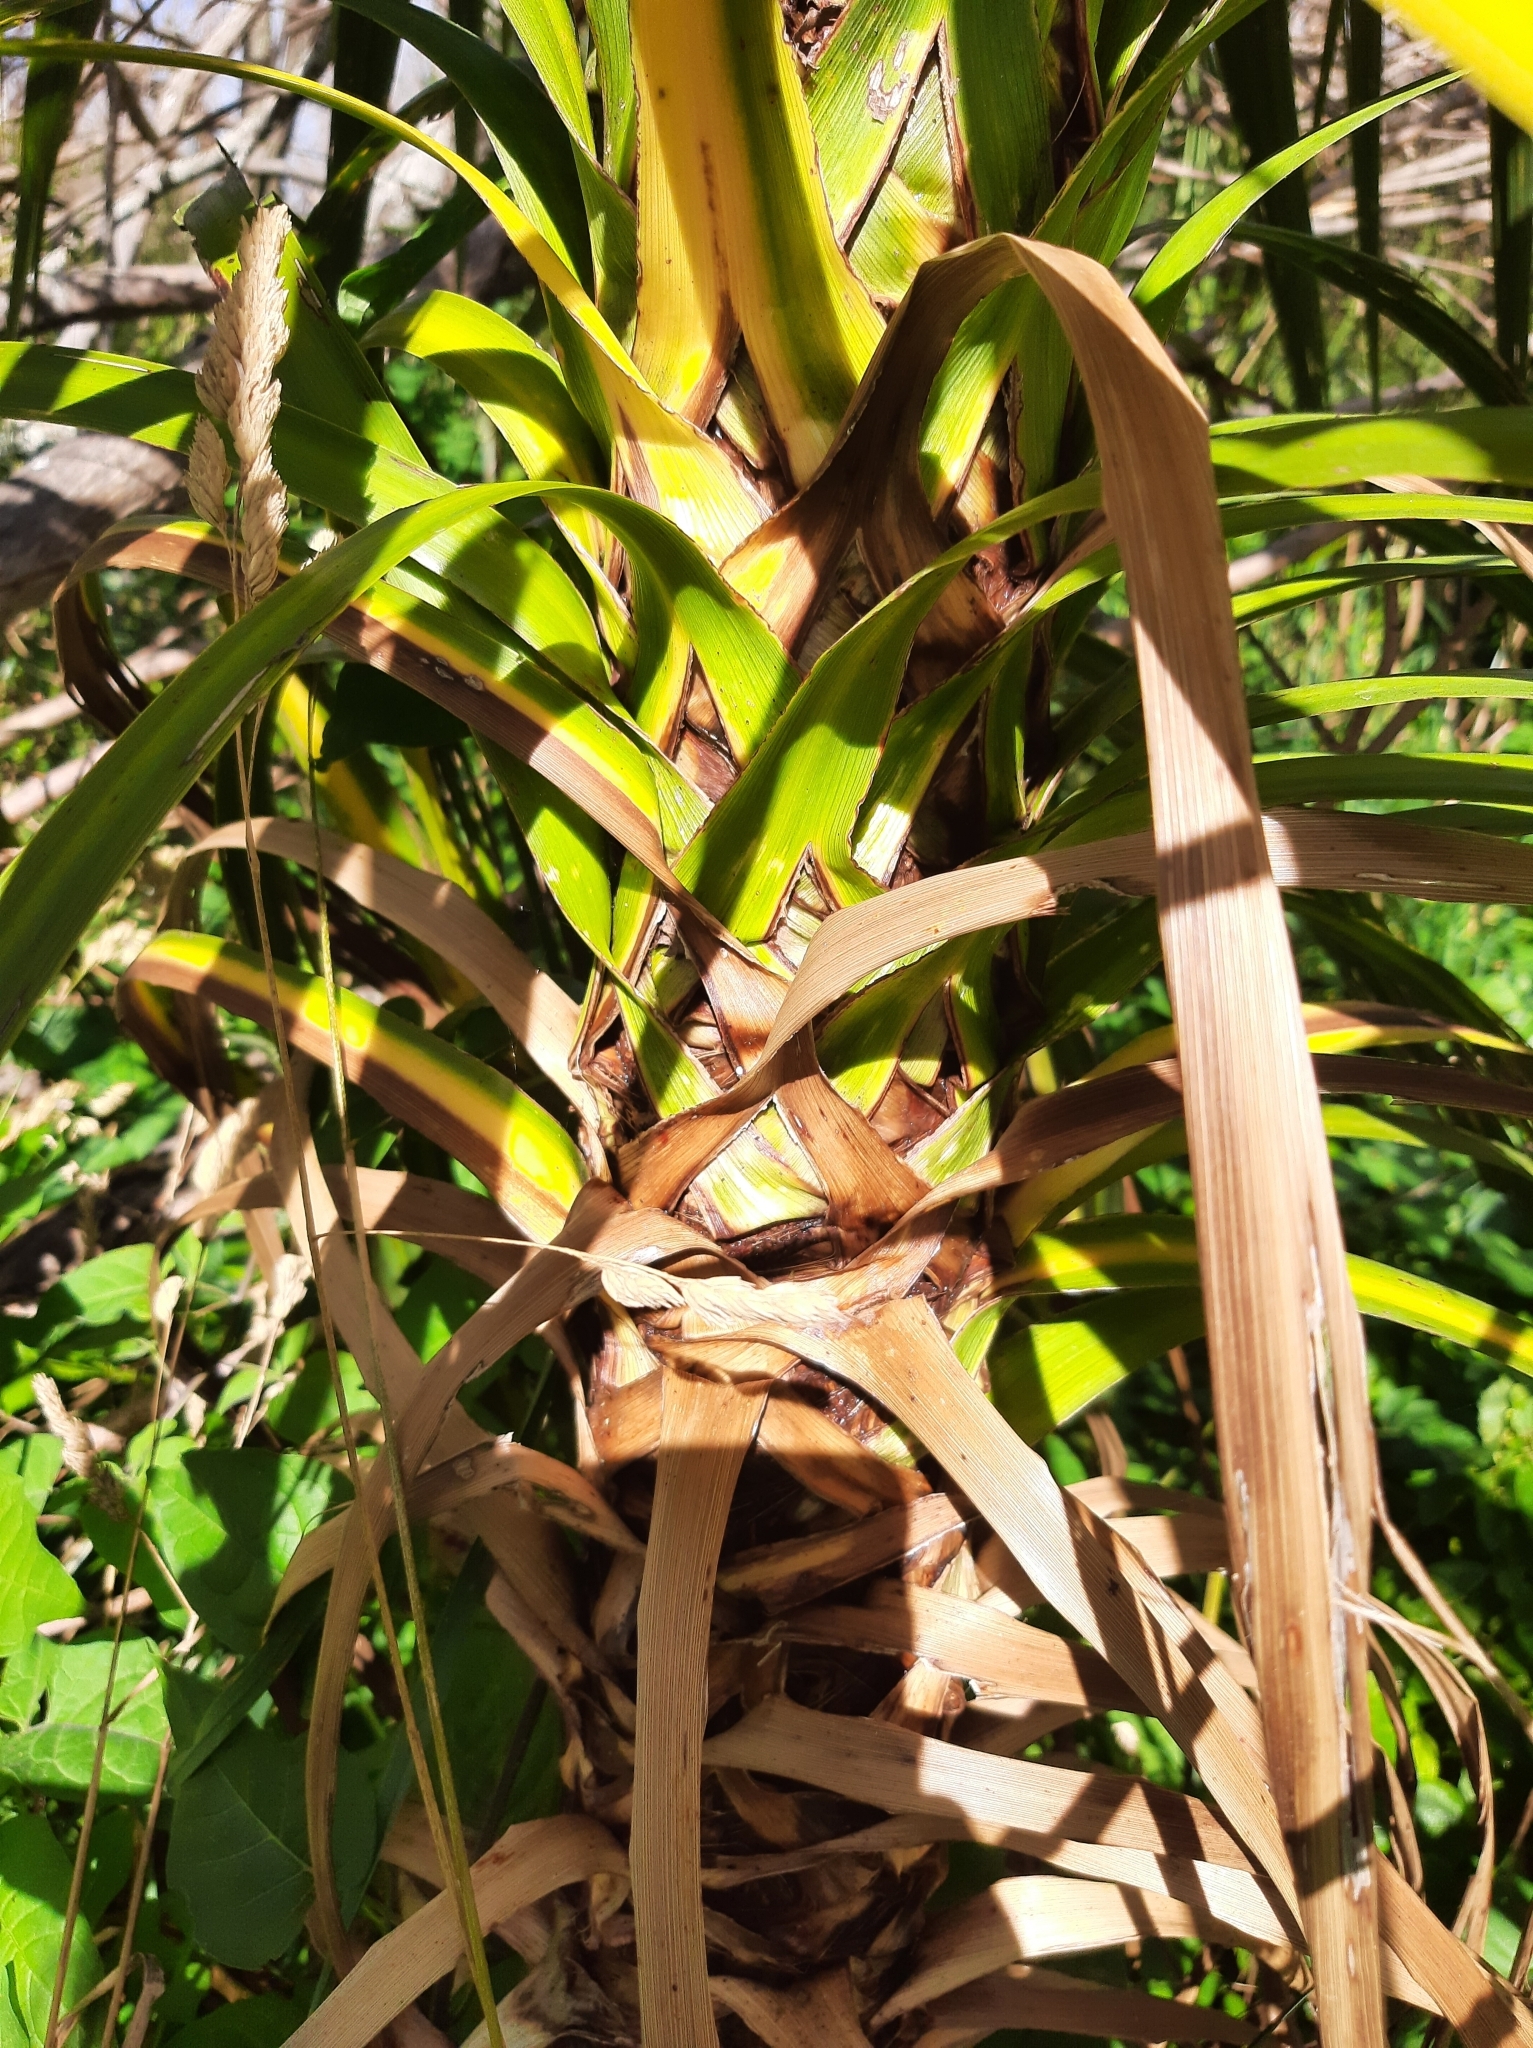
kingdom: Plantae
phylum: Tracheophyta
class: Liliopsida
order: Asparagales
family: Asparagaceae
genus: Cordyline
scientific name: Cordyline australis
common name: Cabbage-palm
